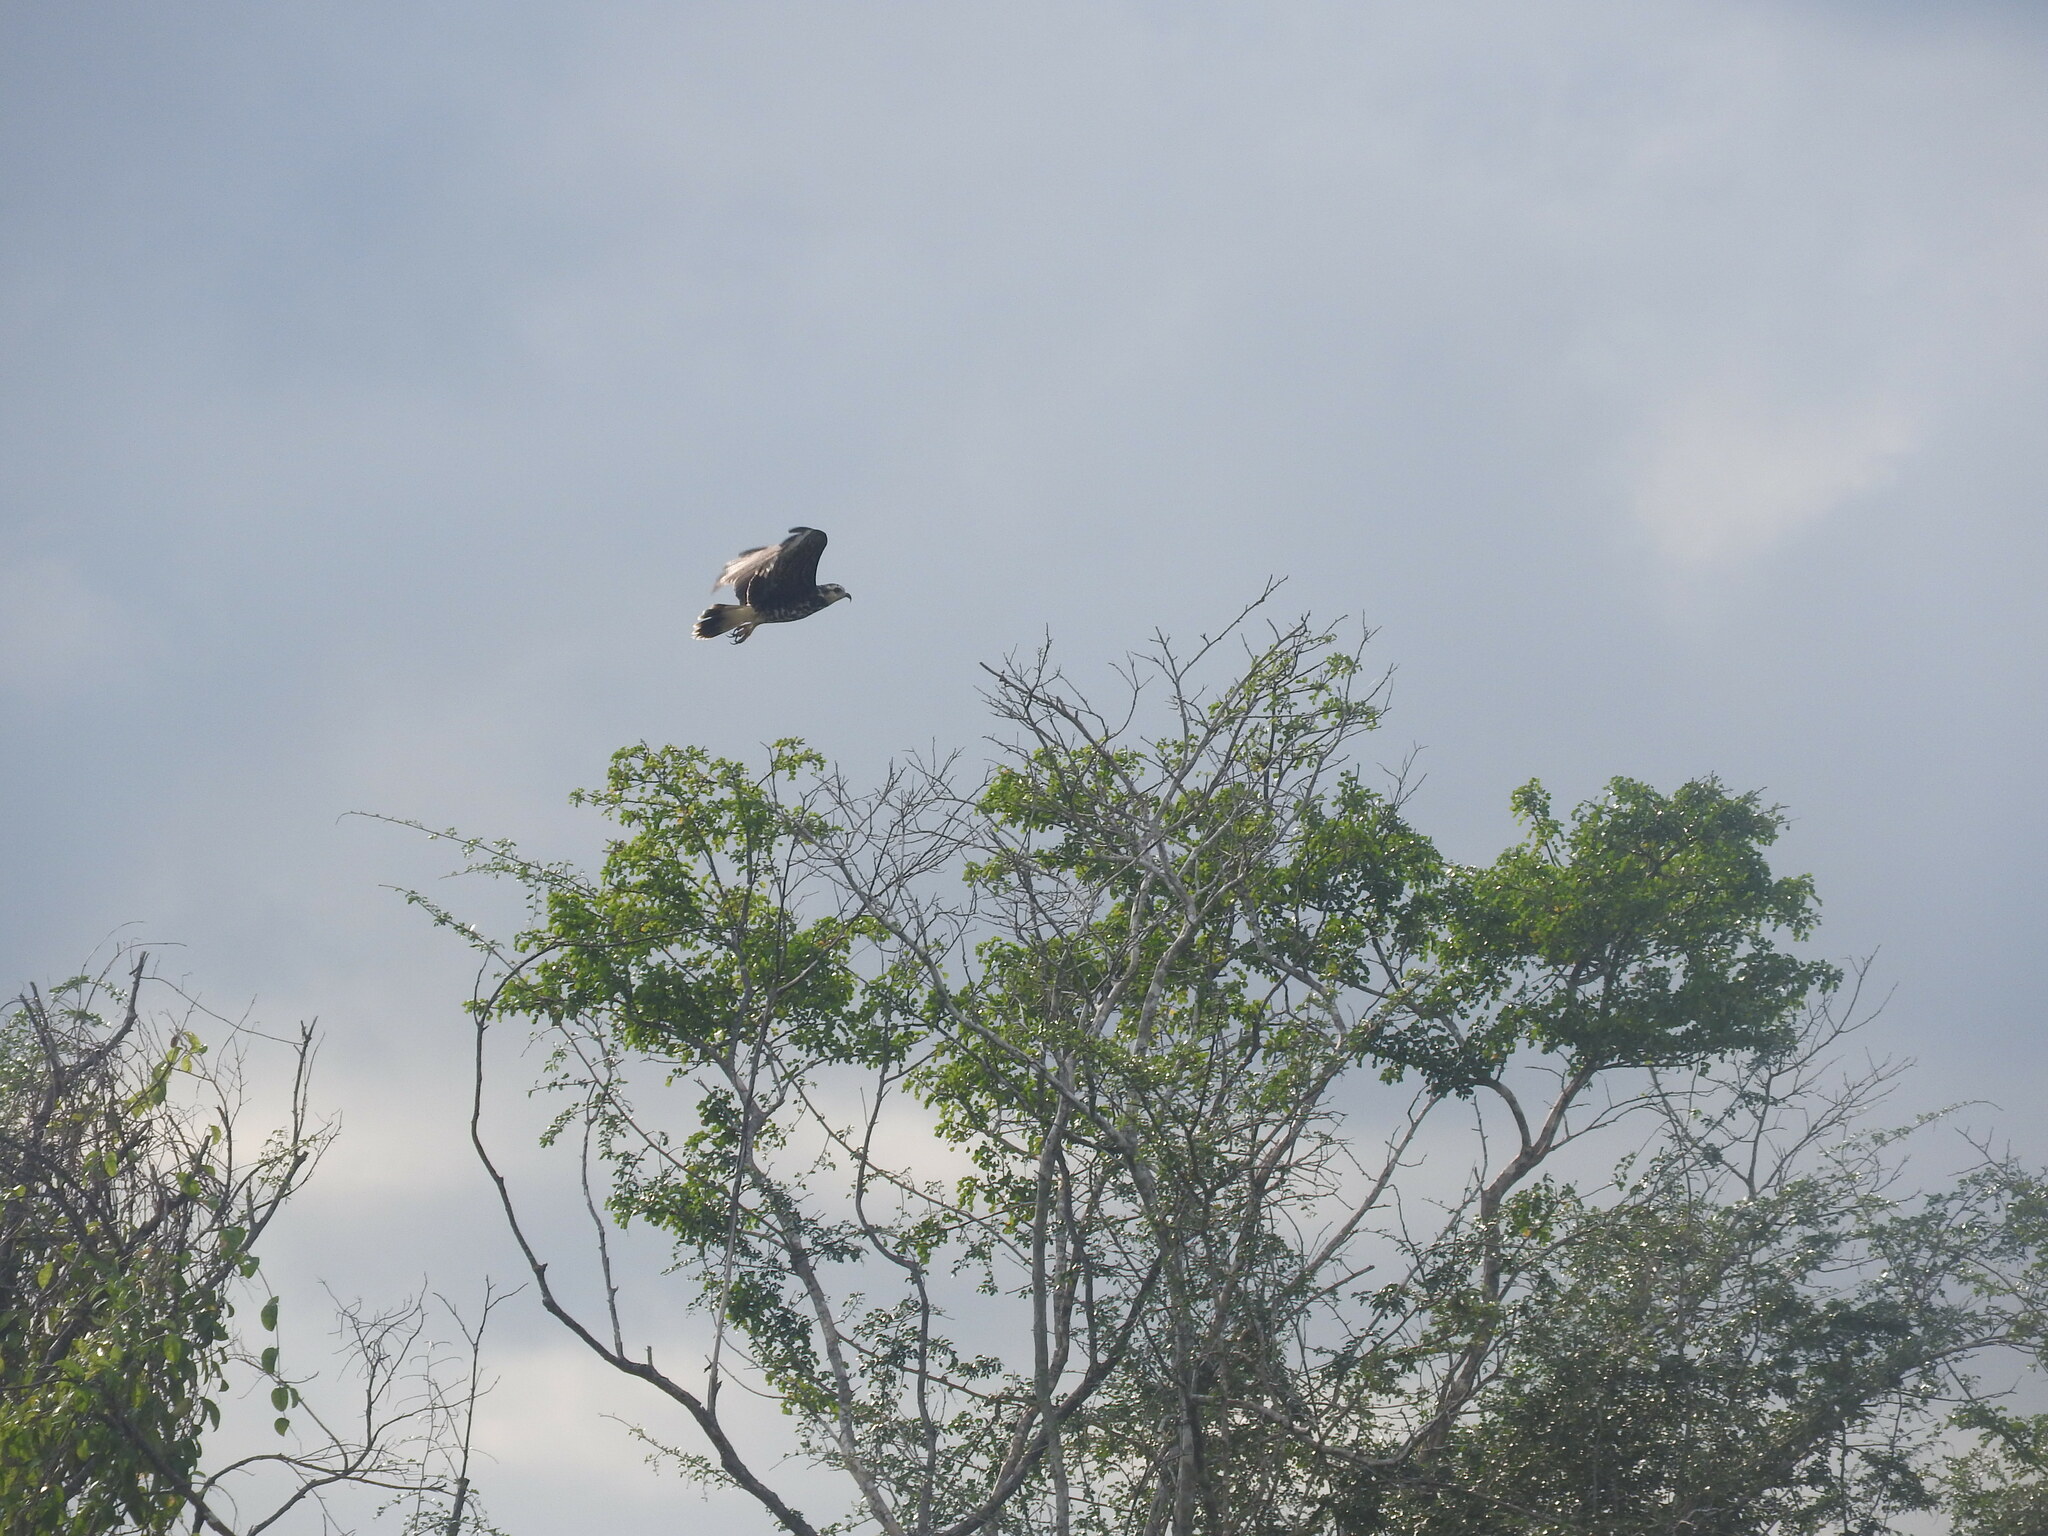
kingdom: Animalia
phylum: Chordata
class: Aves
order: Accipitriformes
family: Accipitridae
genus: Rostrhamus
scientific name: Rostrhamus sociabilis
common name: Snail kite
